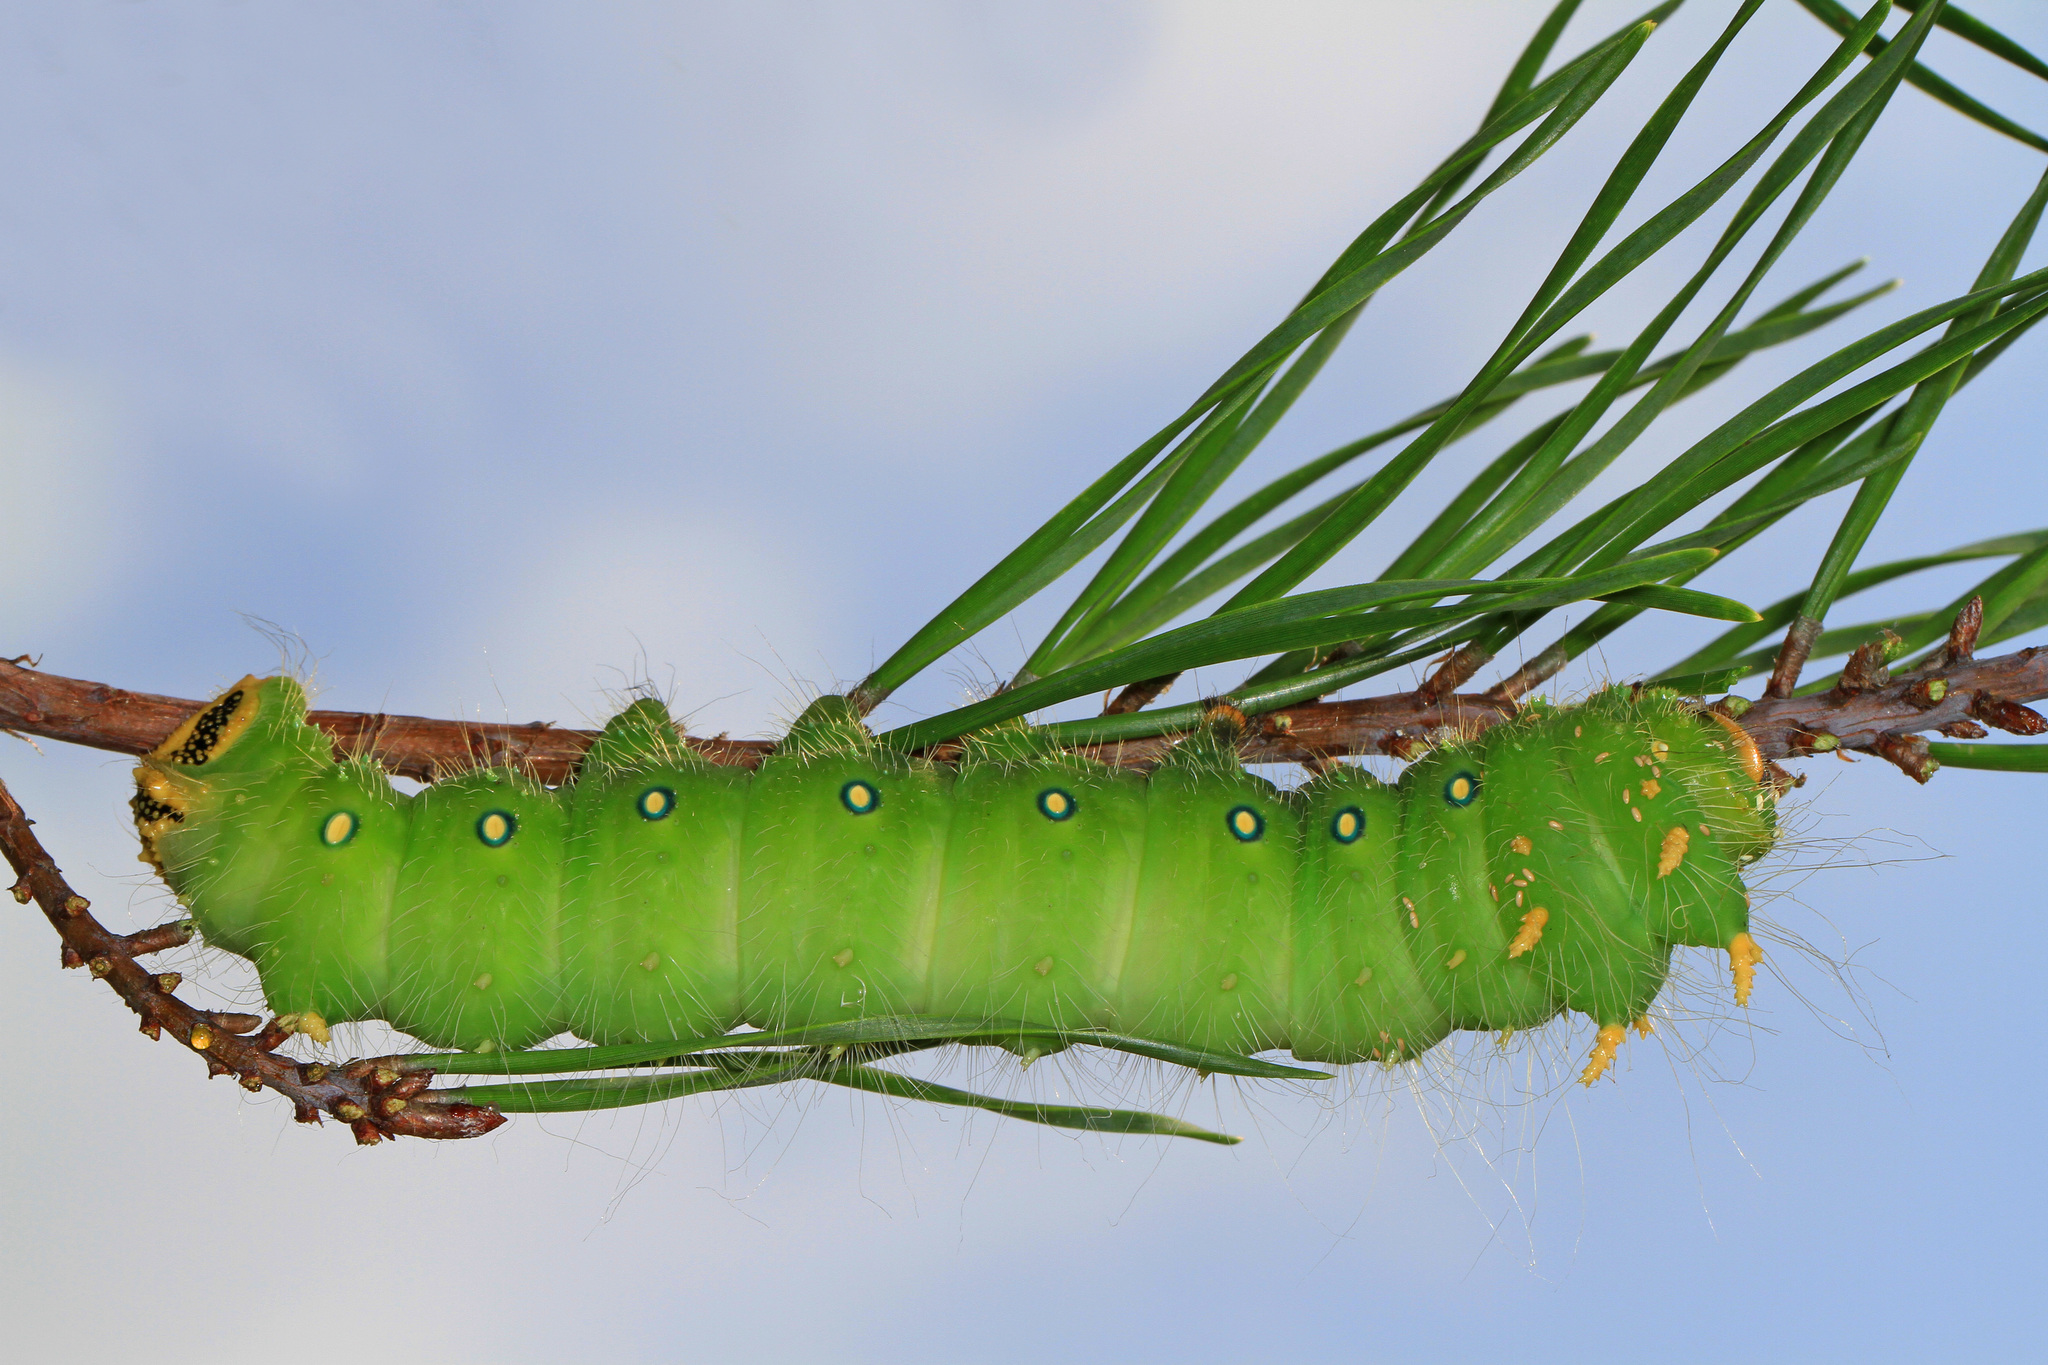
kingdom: Animalia
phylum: Arthropoda
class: Insecta
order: Lepidoptera
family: Saturniidae
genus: Eacles
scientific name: Eacles imperialis
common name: Imperial moth
